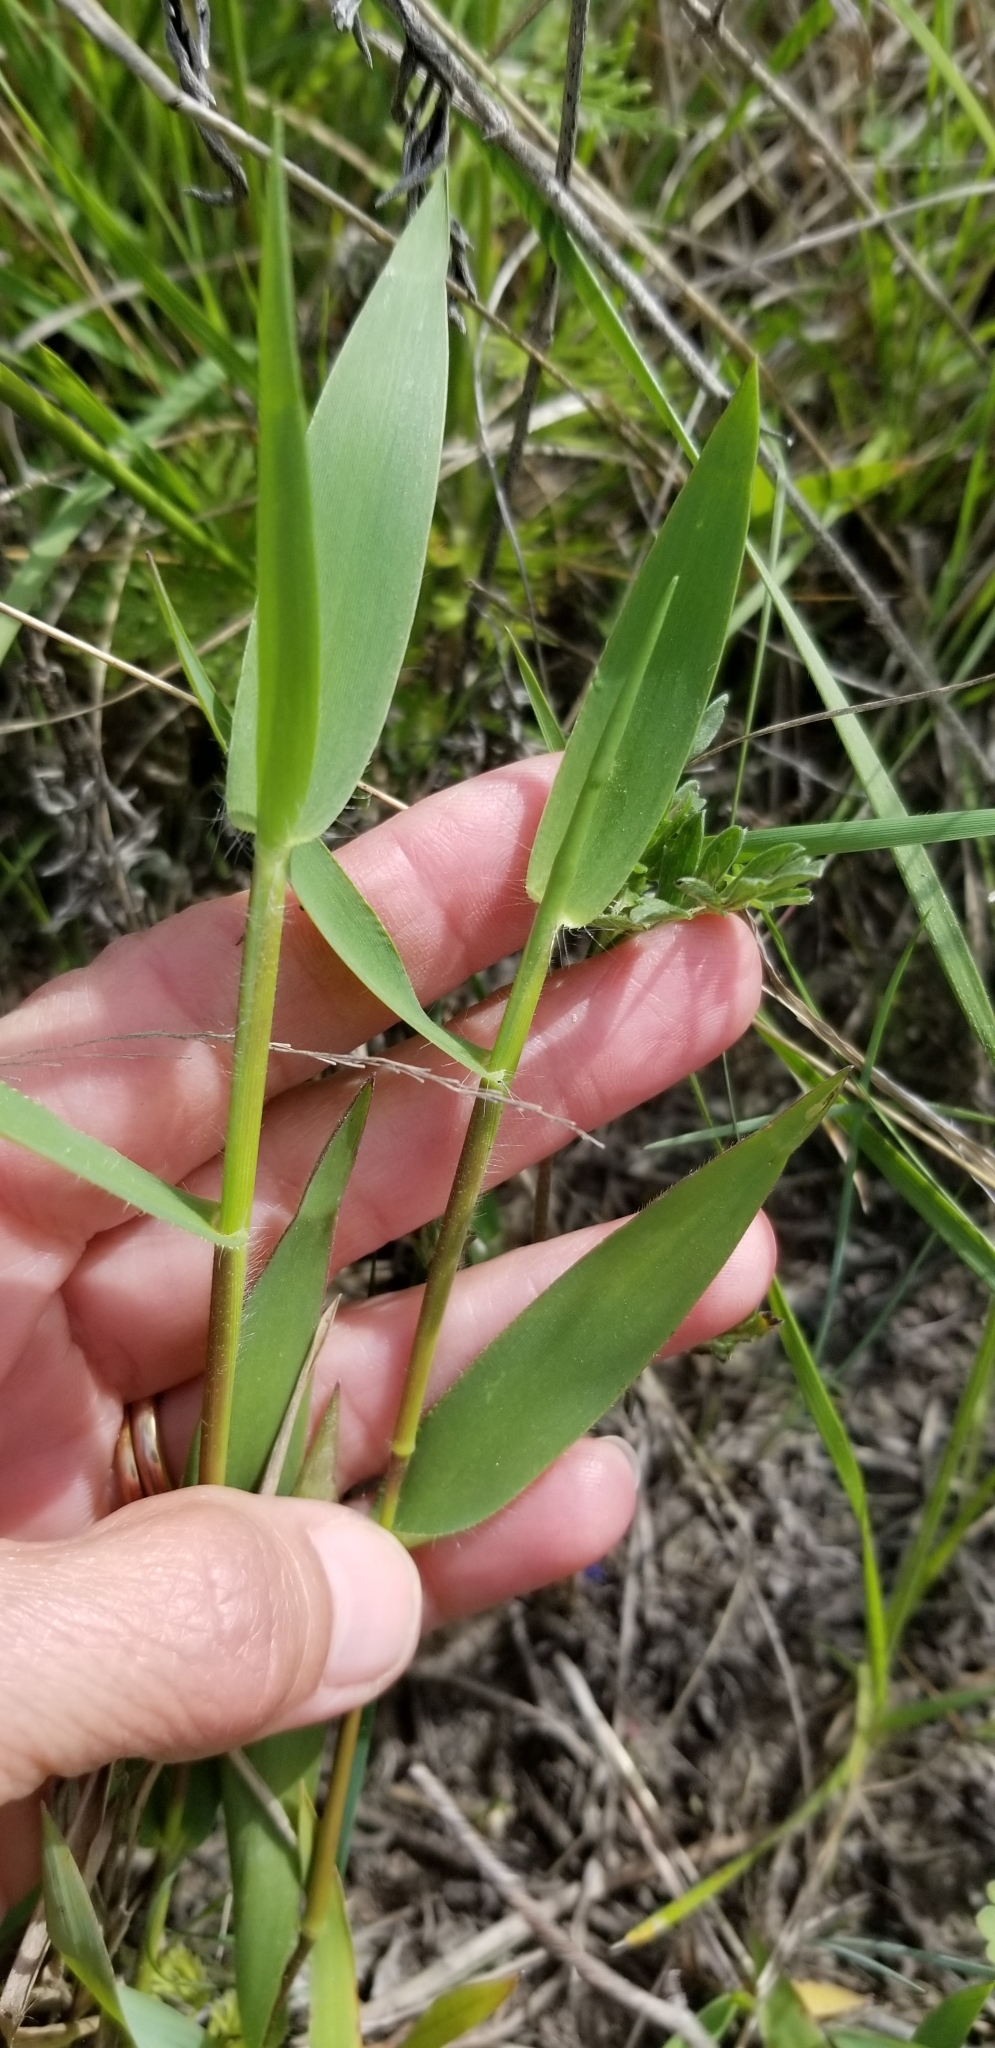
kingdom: Plantae
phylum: Tracheophyta
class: Liliopsida
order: Poales
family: Poaceae
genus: Dichanthelium
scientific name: Dichanthelium oligosanthes
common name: Few-anther obscuregrass
